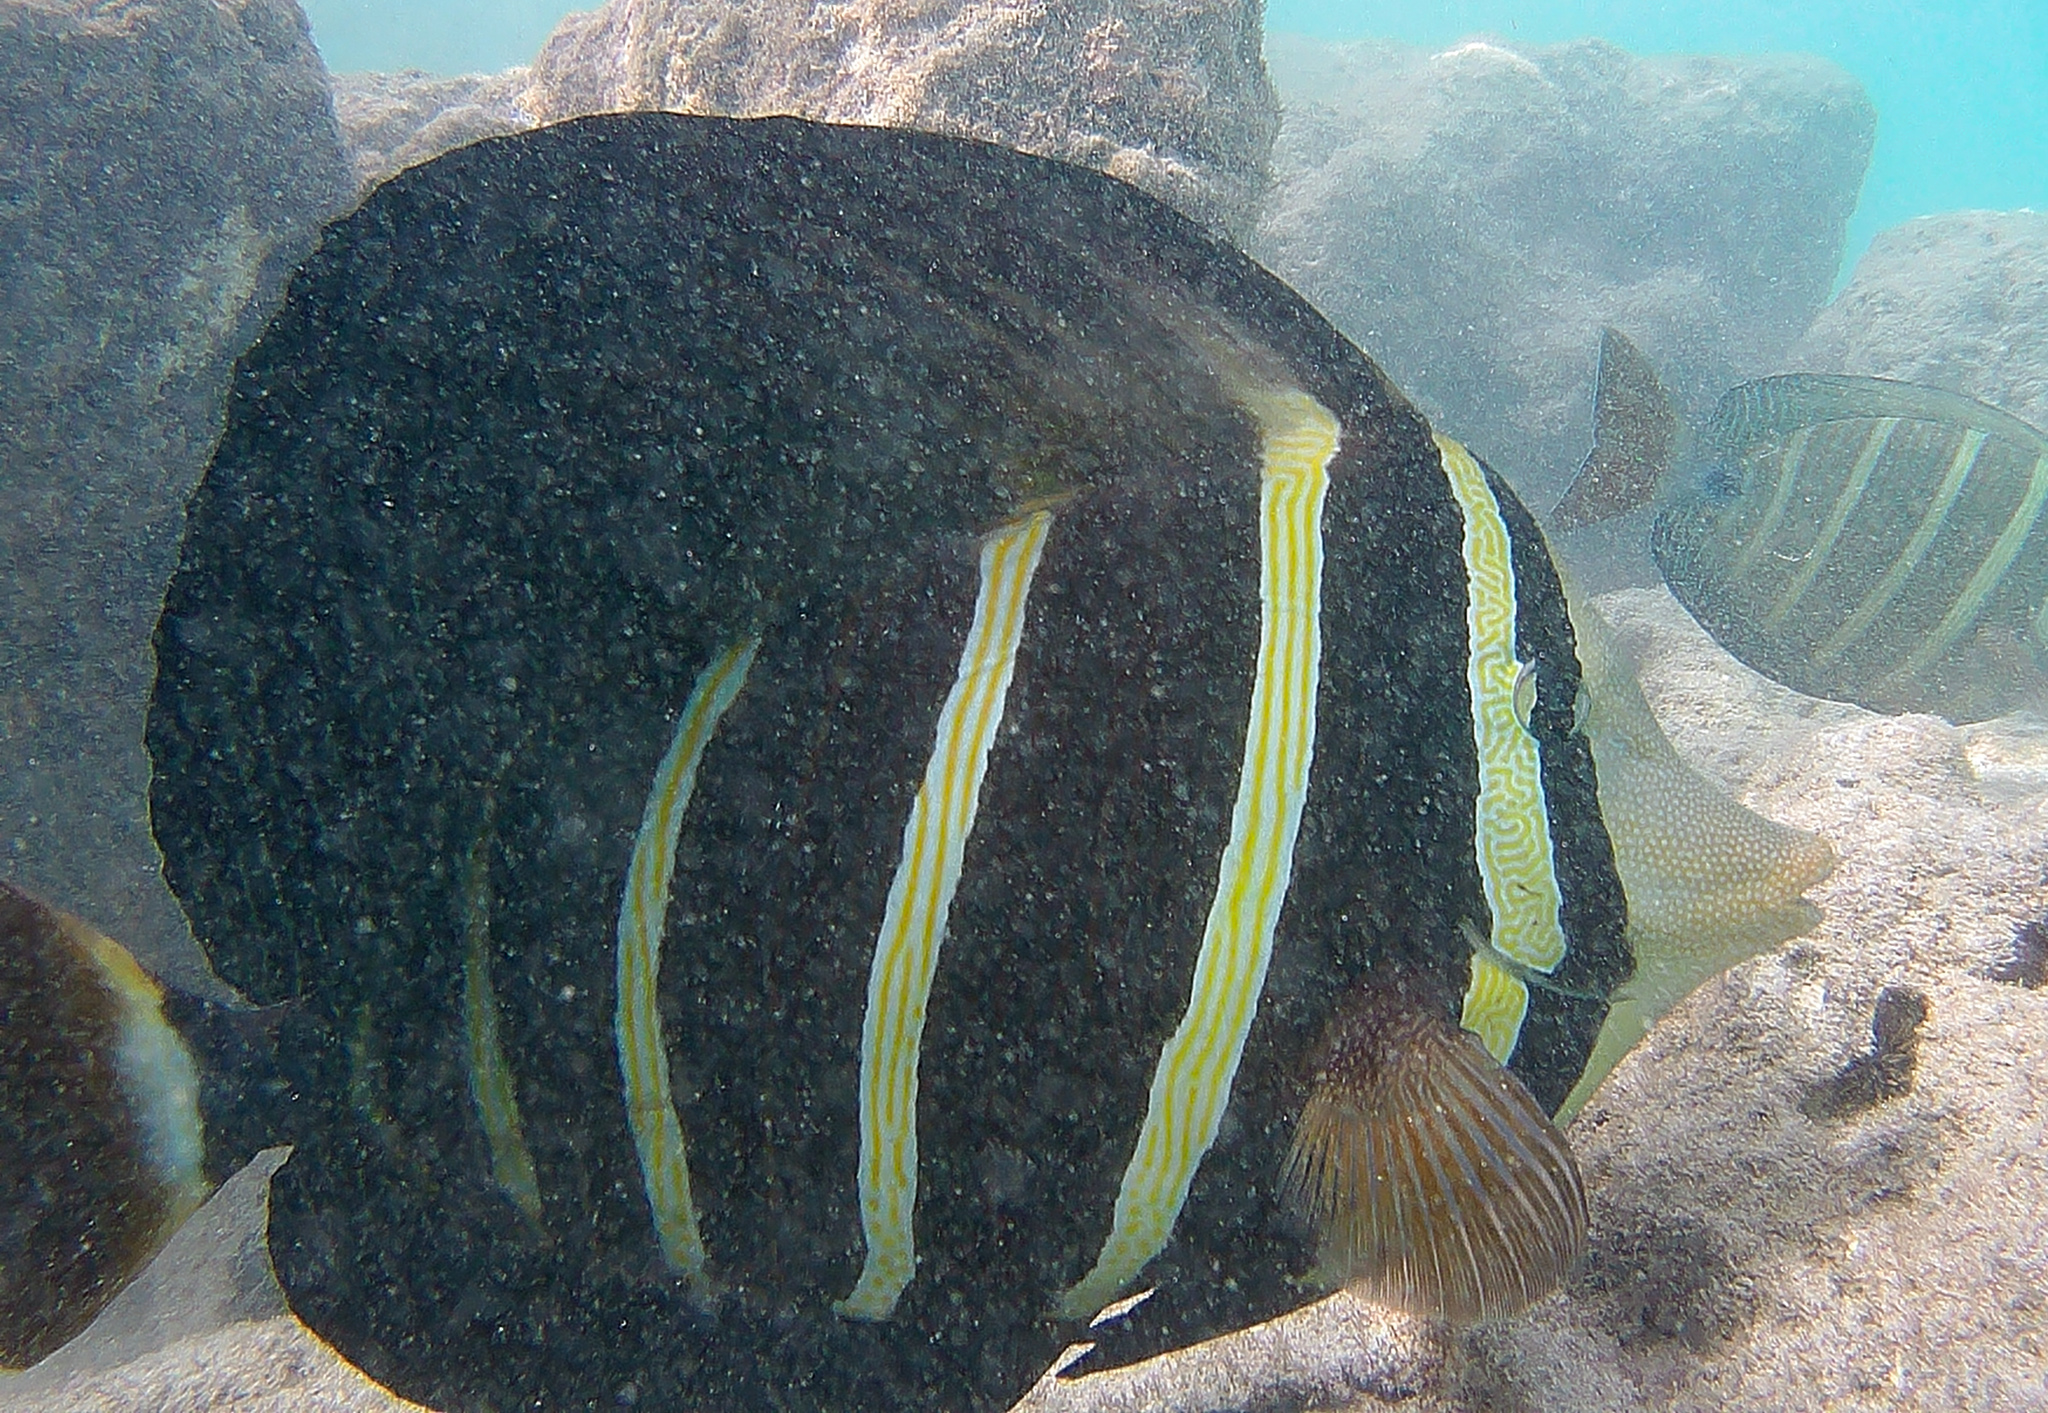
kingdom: Animalia
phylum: Chordata
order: Perciformes
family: Acanthuridae
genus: Zebrasoma
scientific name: Zebrasoma veliferum
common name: Sailfin surgeonfish
